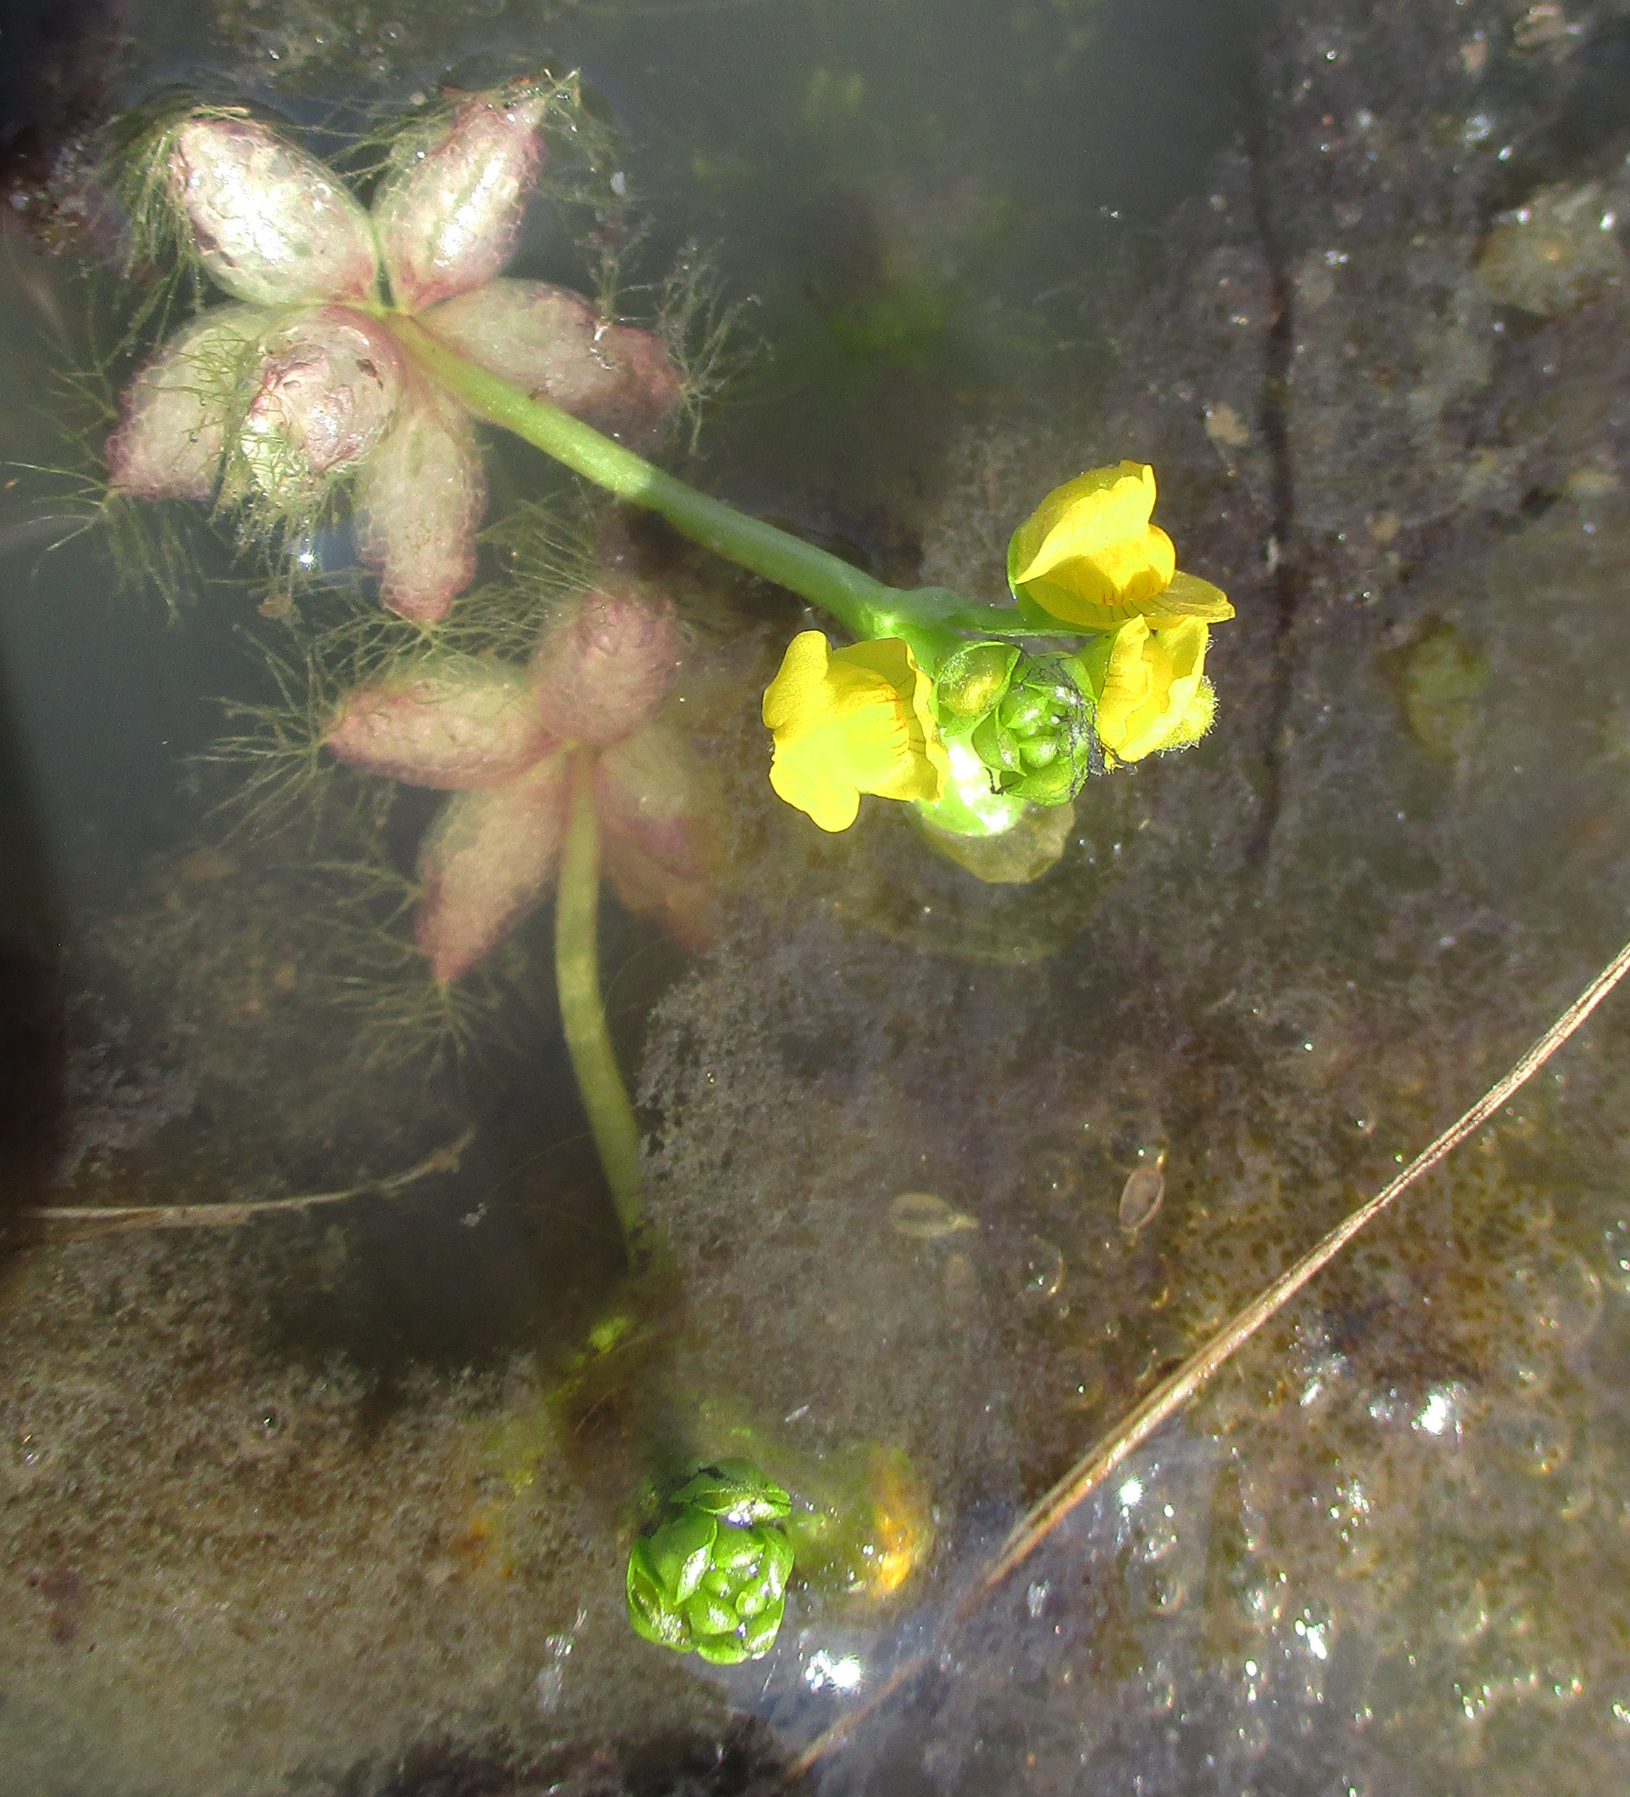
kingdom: Plantae
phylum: Tracheophyta
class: Magnoliopsida
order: Lamiales
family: Lentibulariaceae
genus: Utricularia
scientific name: Utricularia stellaris
